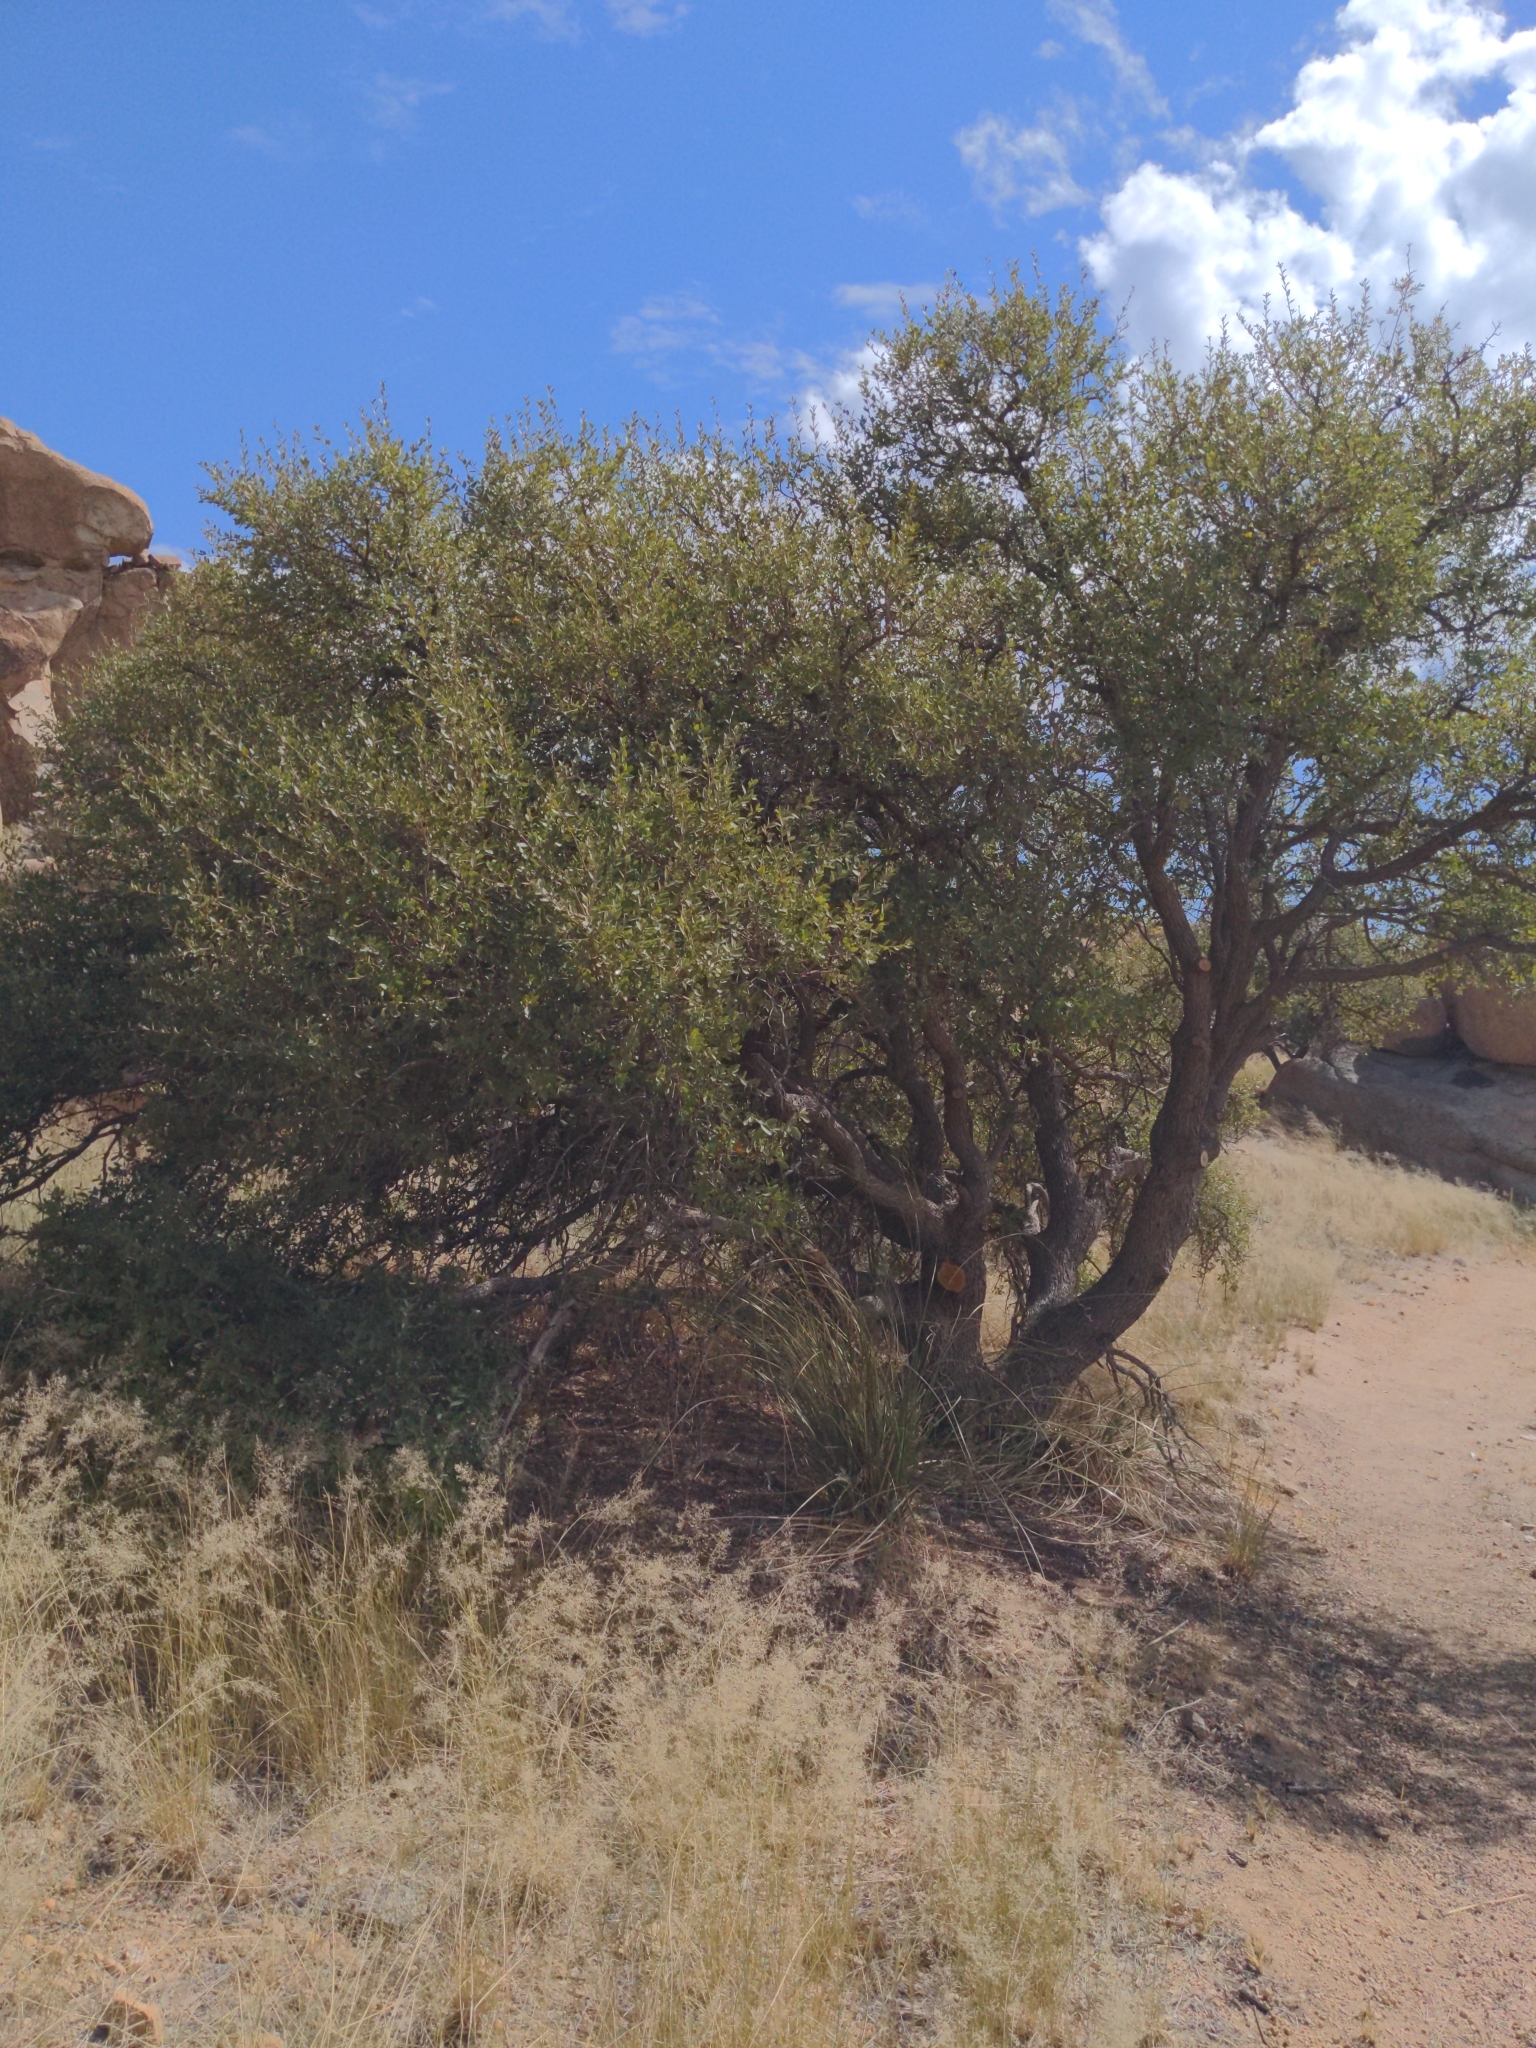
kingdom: Plantae
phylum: Tracheophyta
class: Magnoliopsida
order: Fagales
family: Fagaceae
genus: Quercus
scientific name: Quercus toumeyi
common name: Toumey oak
